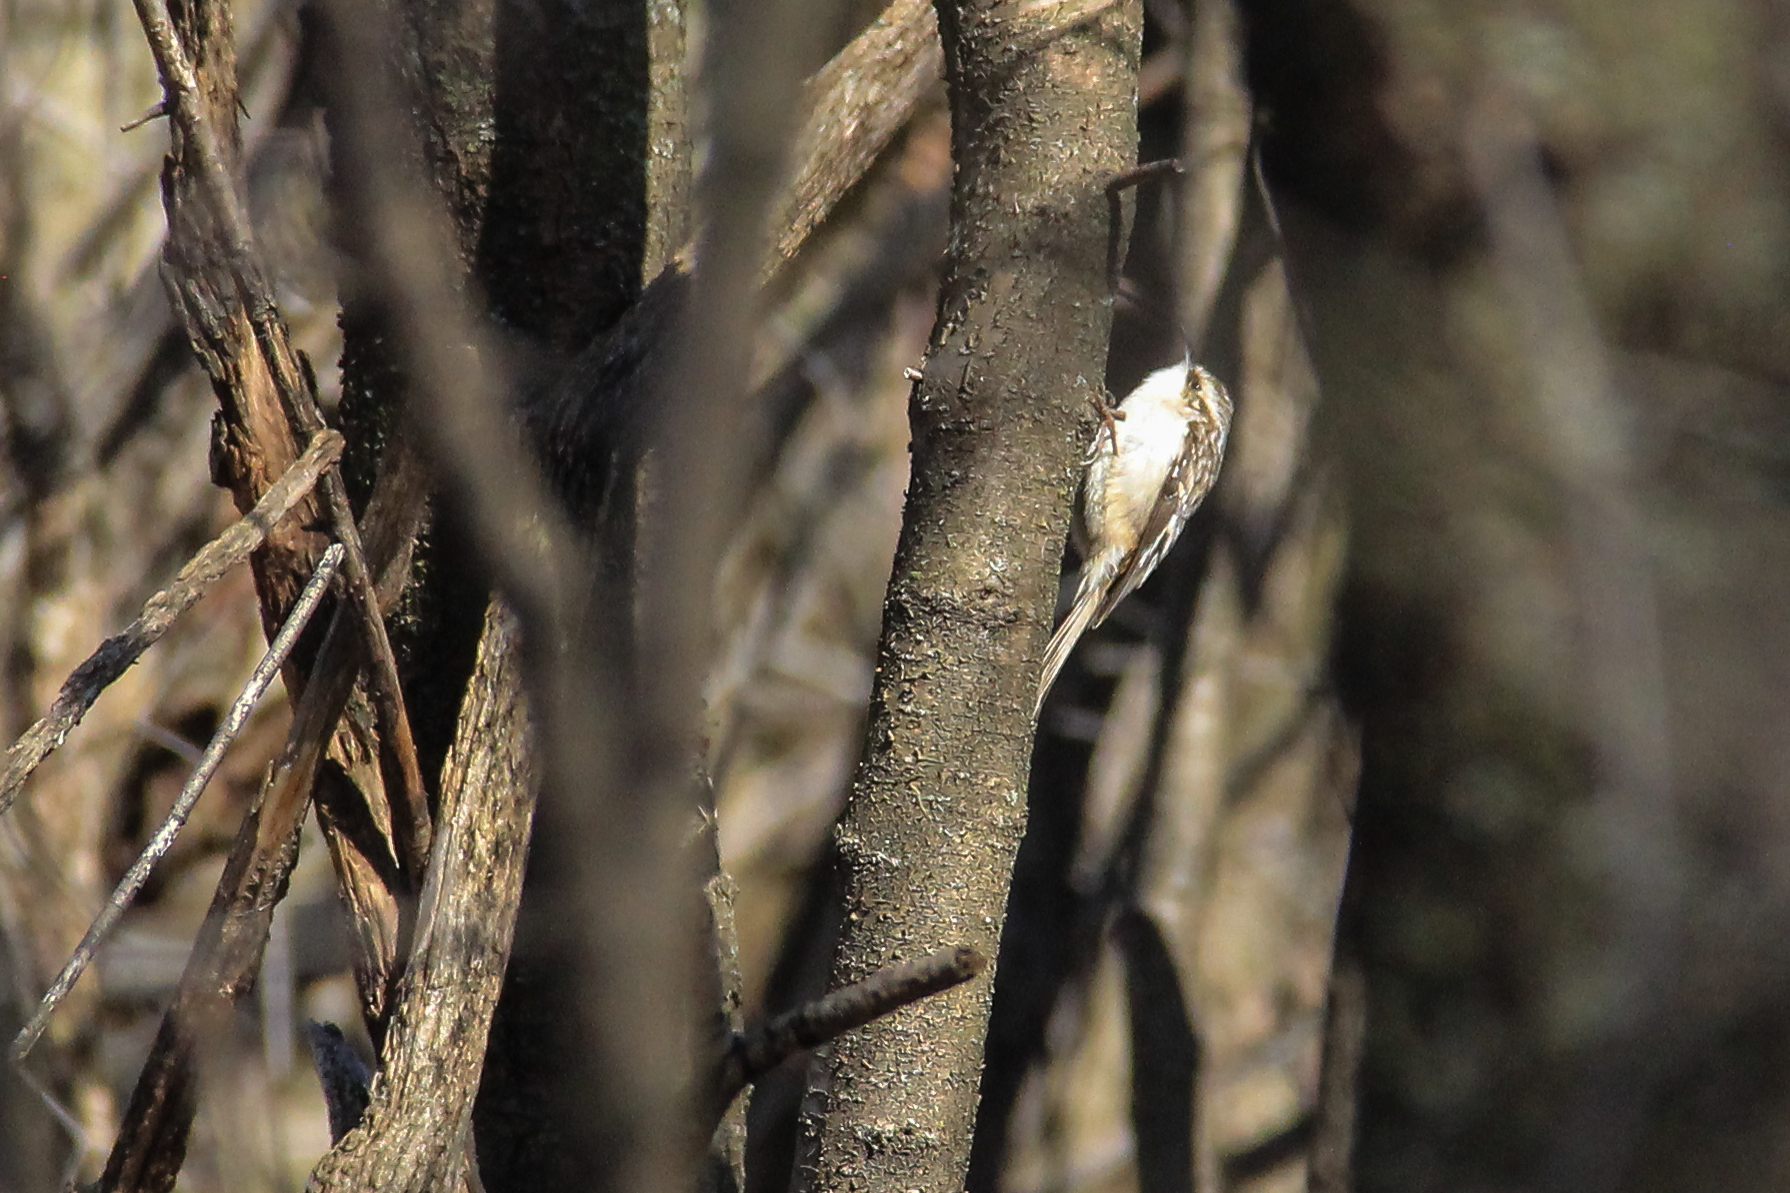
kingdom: Animalia
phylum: Chordata
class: Aves
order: Passeriformes
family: Certhiidae
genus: Certhia
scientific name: Certhia americana
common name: Brown creeper
